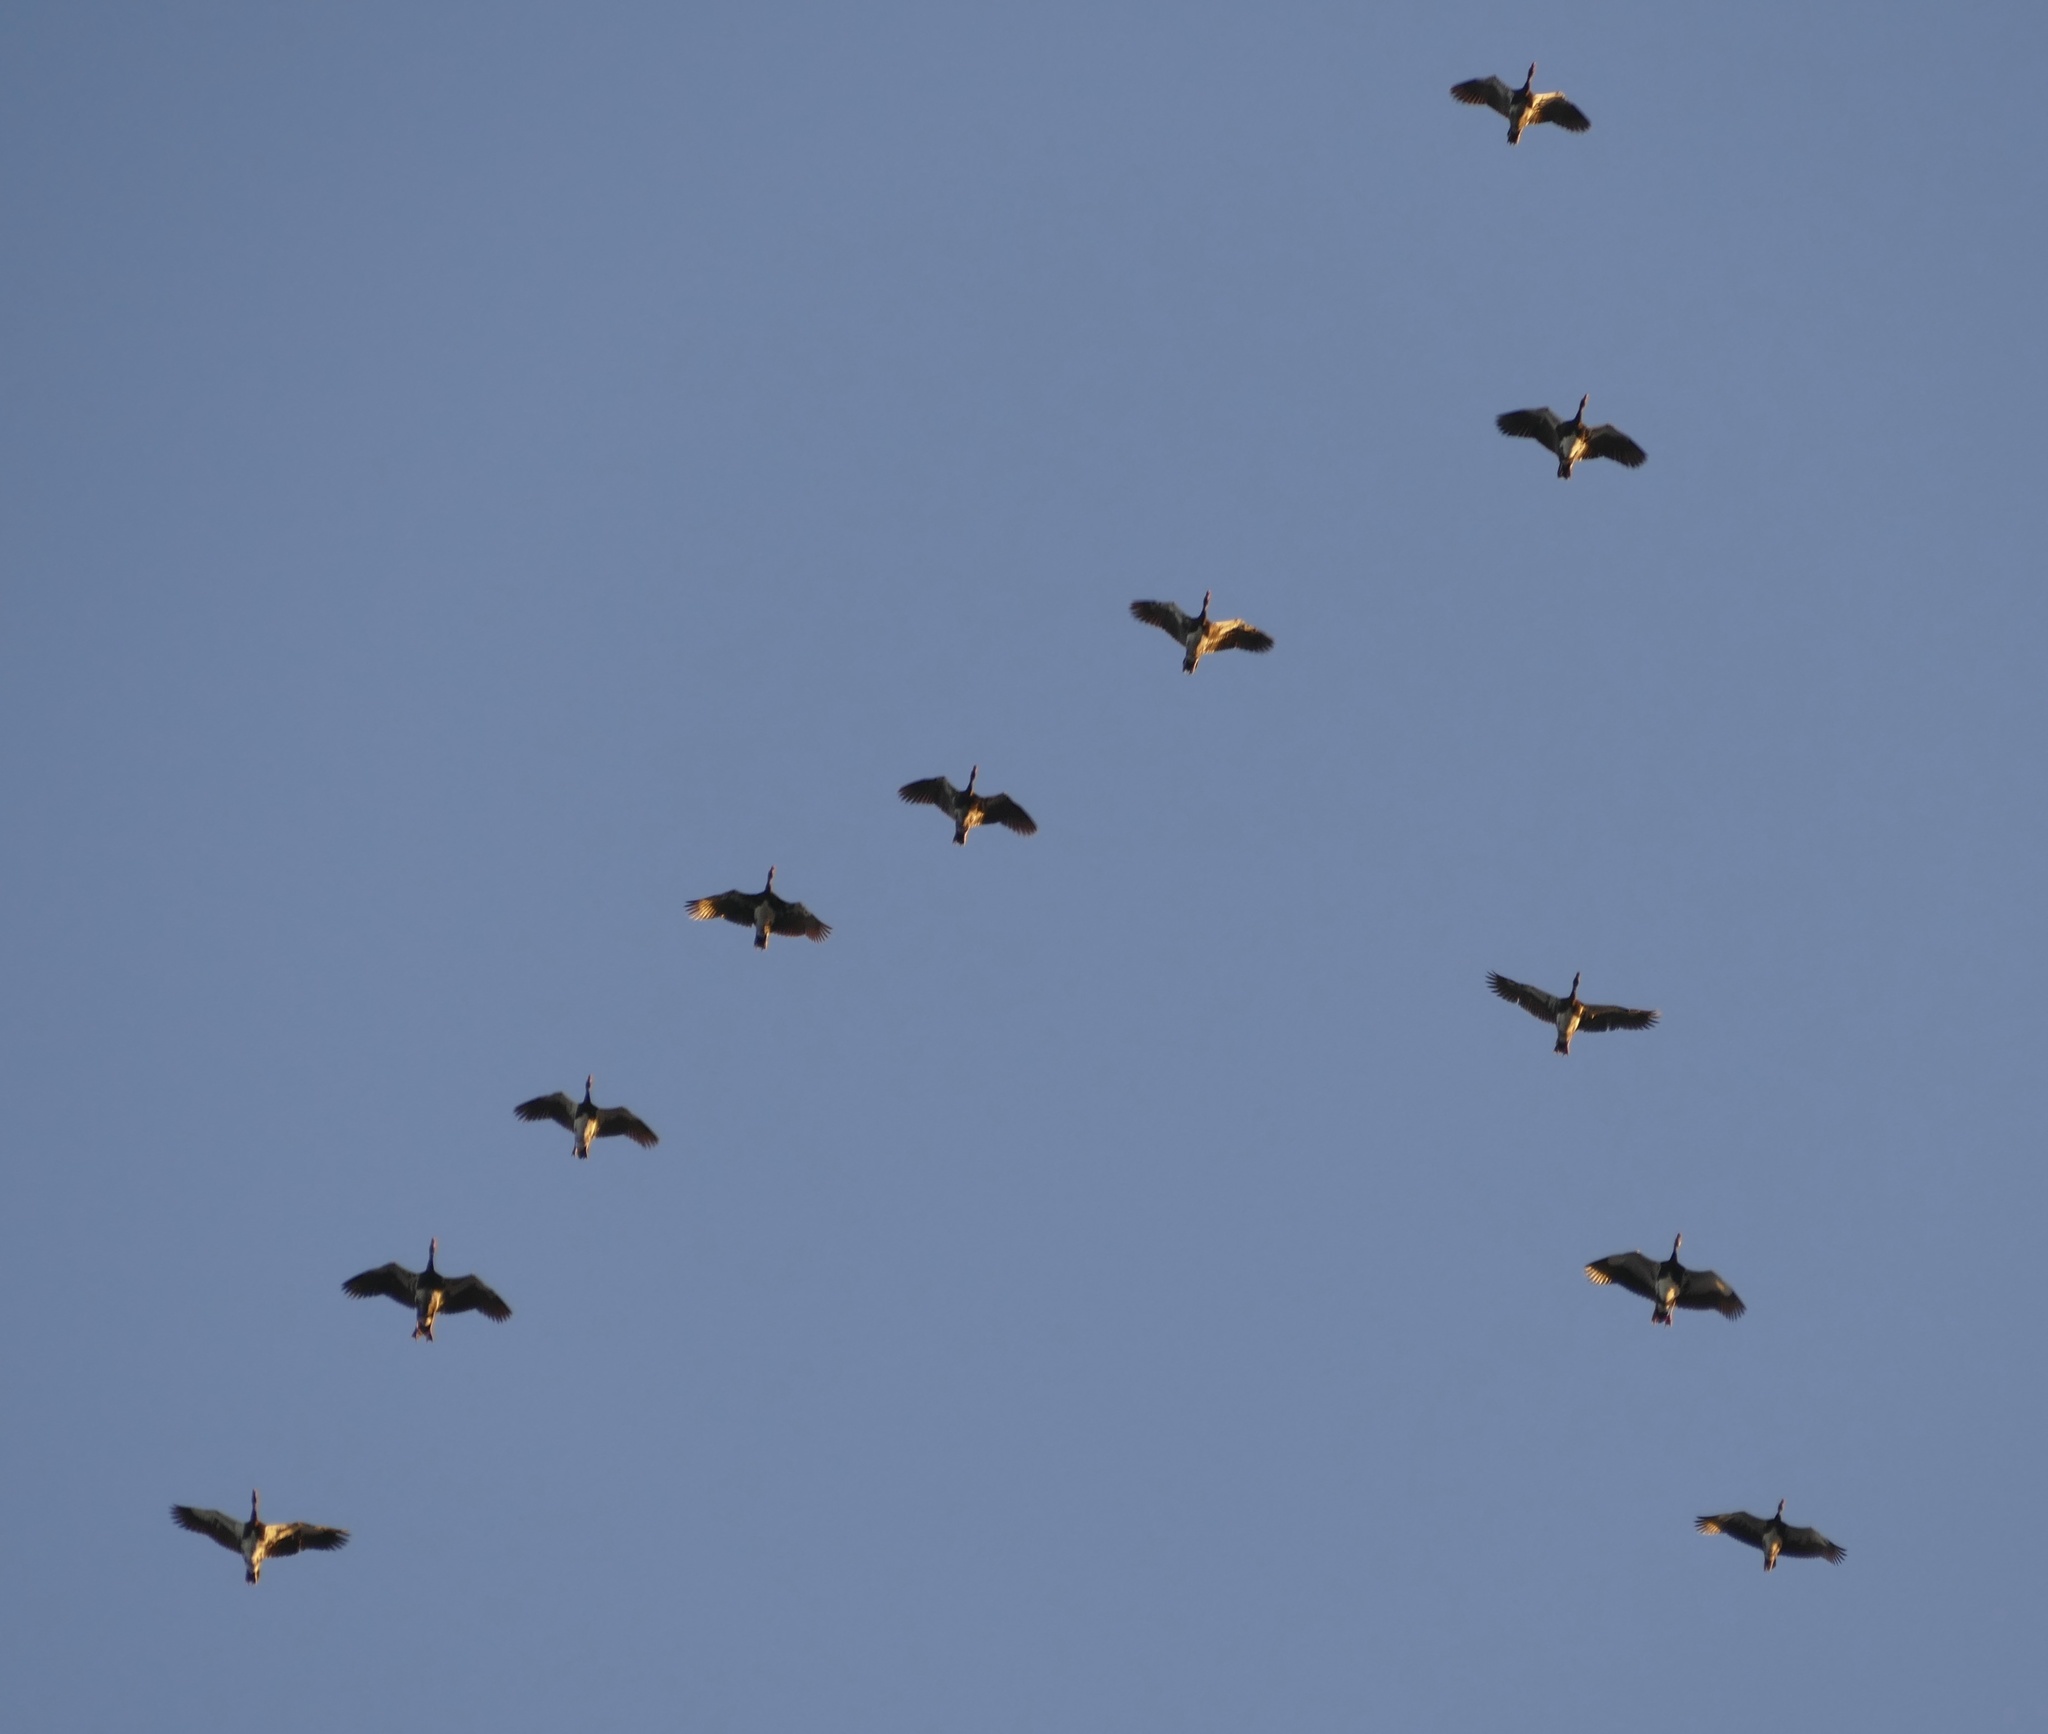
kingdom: Animalia
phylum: Chordata
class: Aves
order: Anseriformes
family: Anatidae
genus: Plectropterus
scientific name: Plectropterus gambensis
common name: Spur-winged goose
